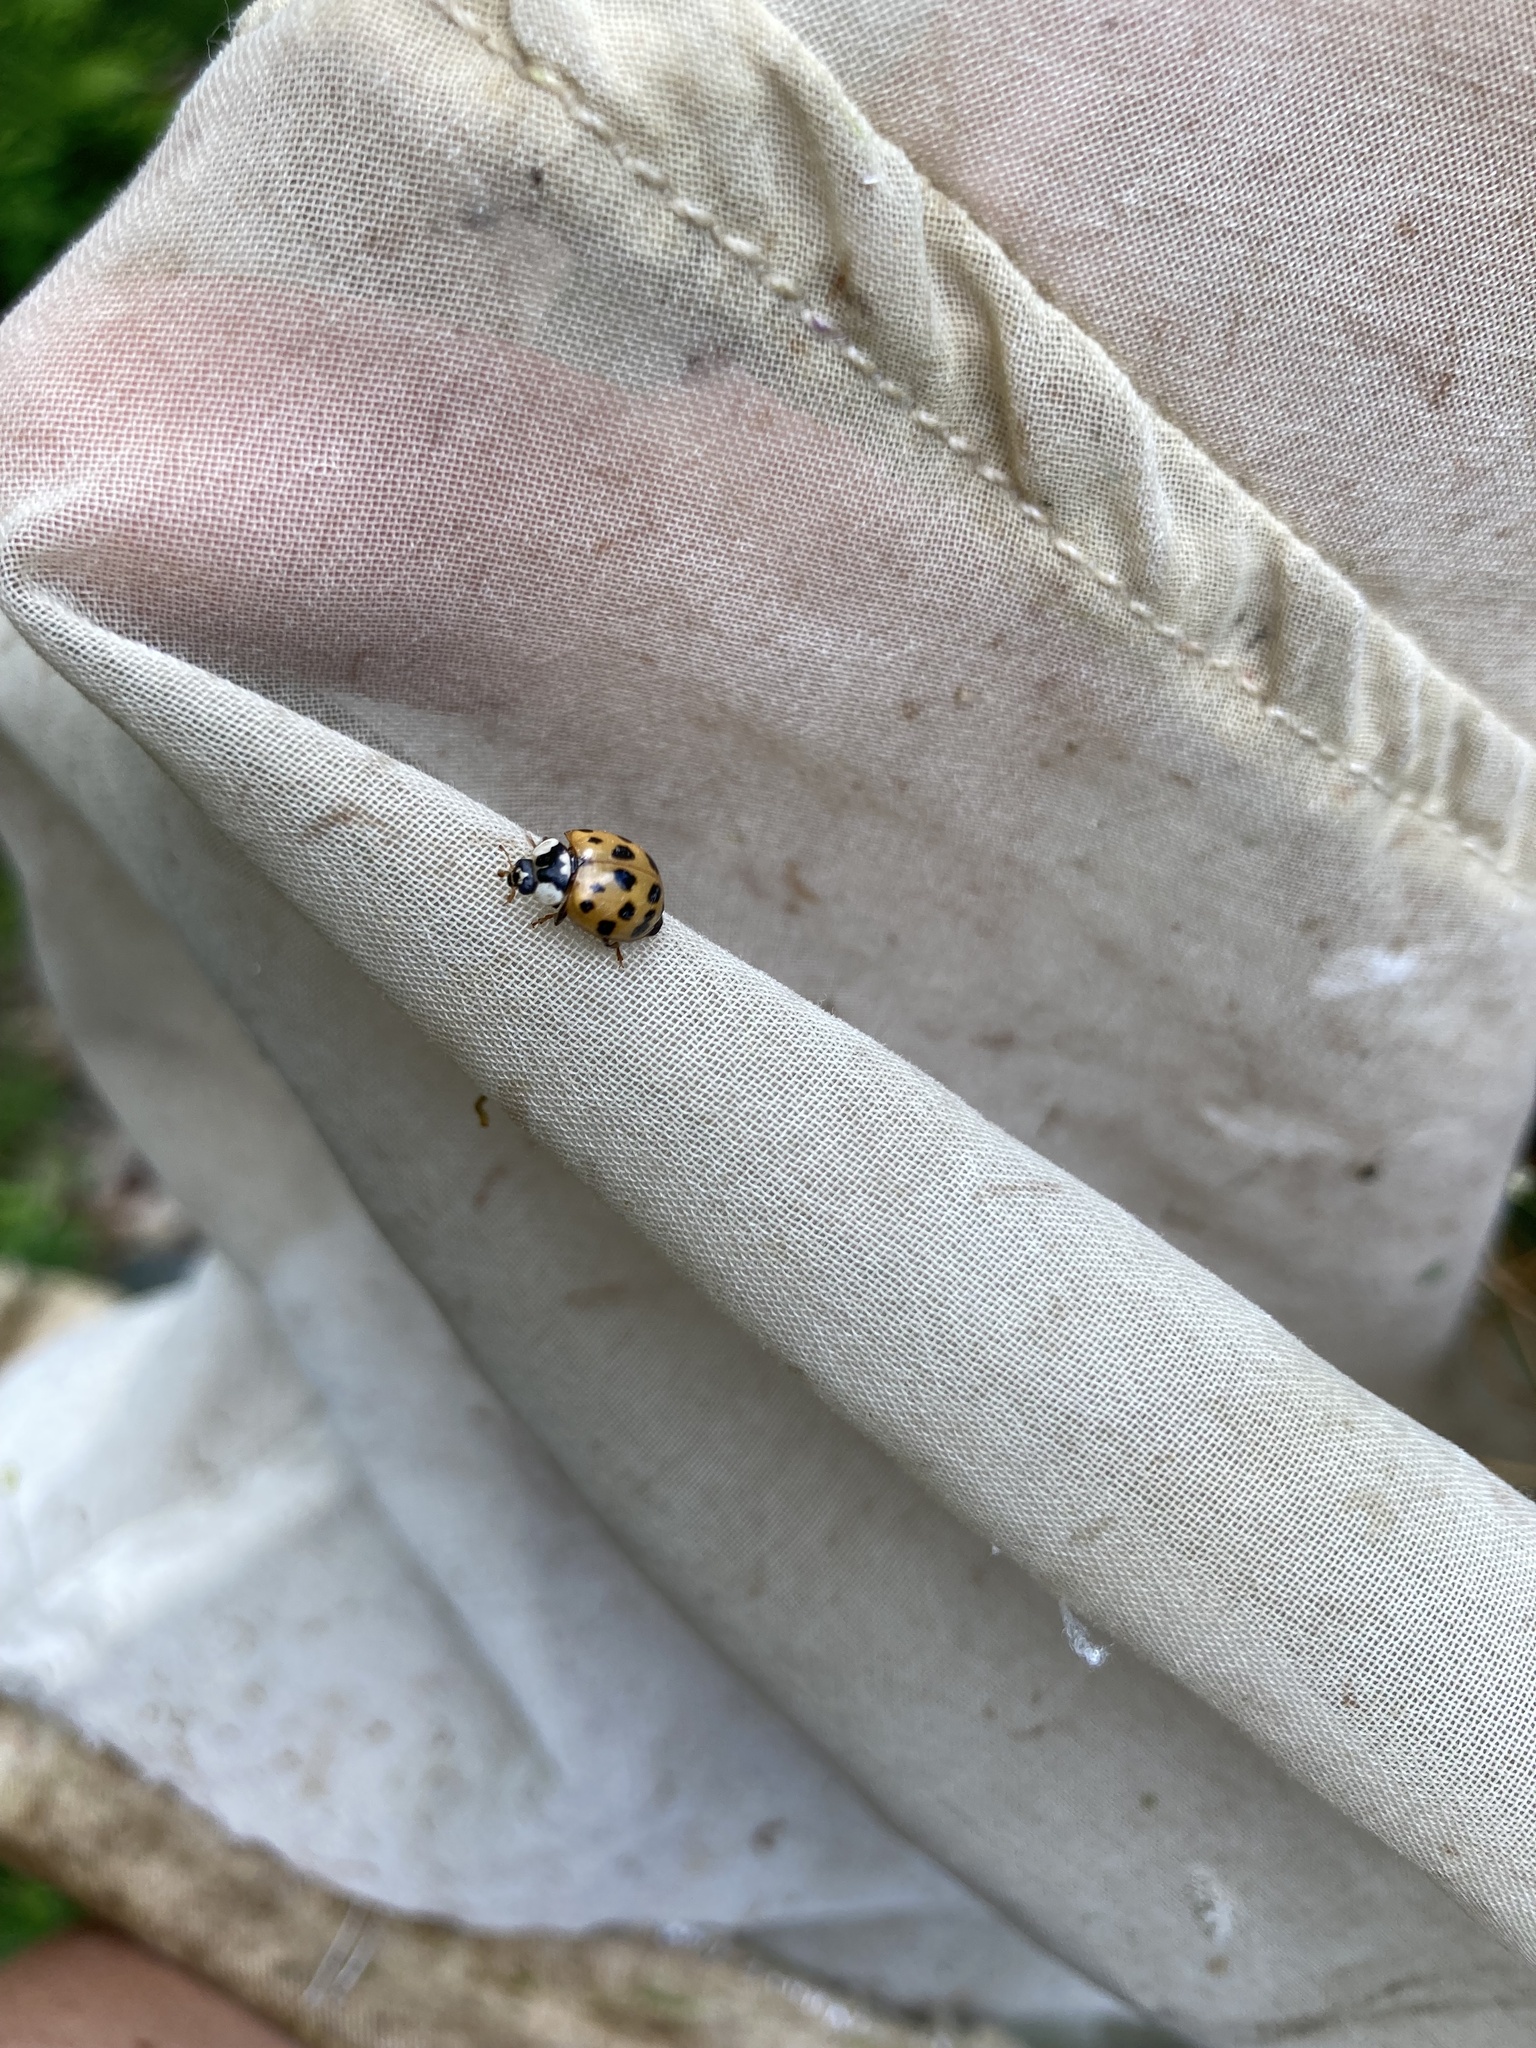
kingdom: Animalia
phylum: Arthropoda
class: Insecta
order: Coleoptera
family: Coccinellidae
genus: Harmonia
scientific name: Harmonia axyridis
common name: Harlequin ladybird
